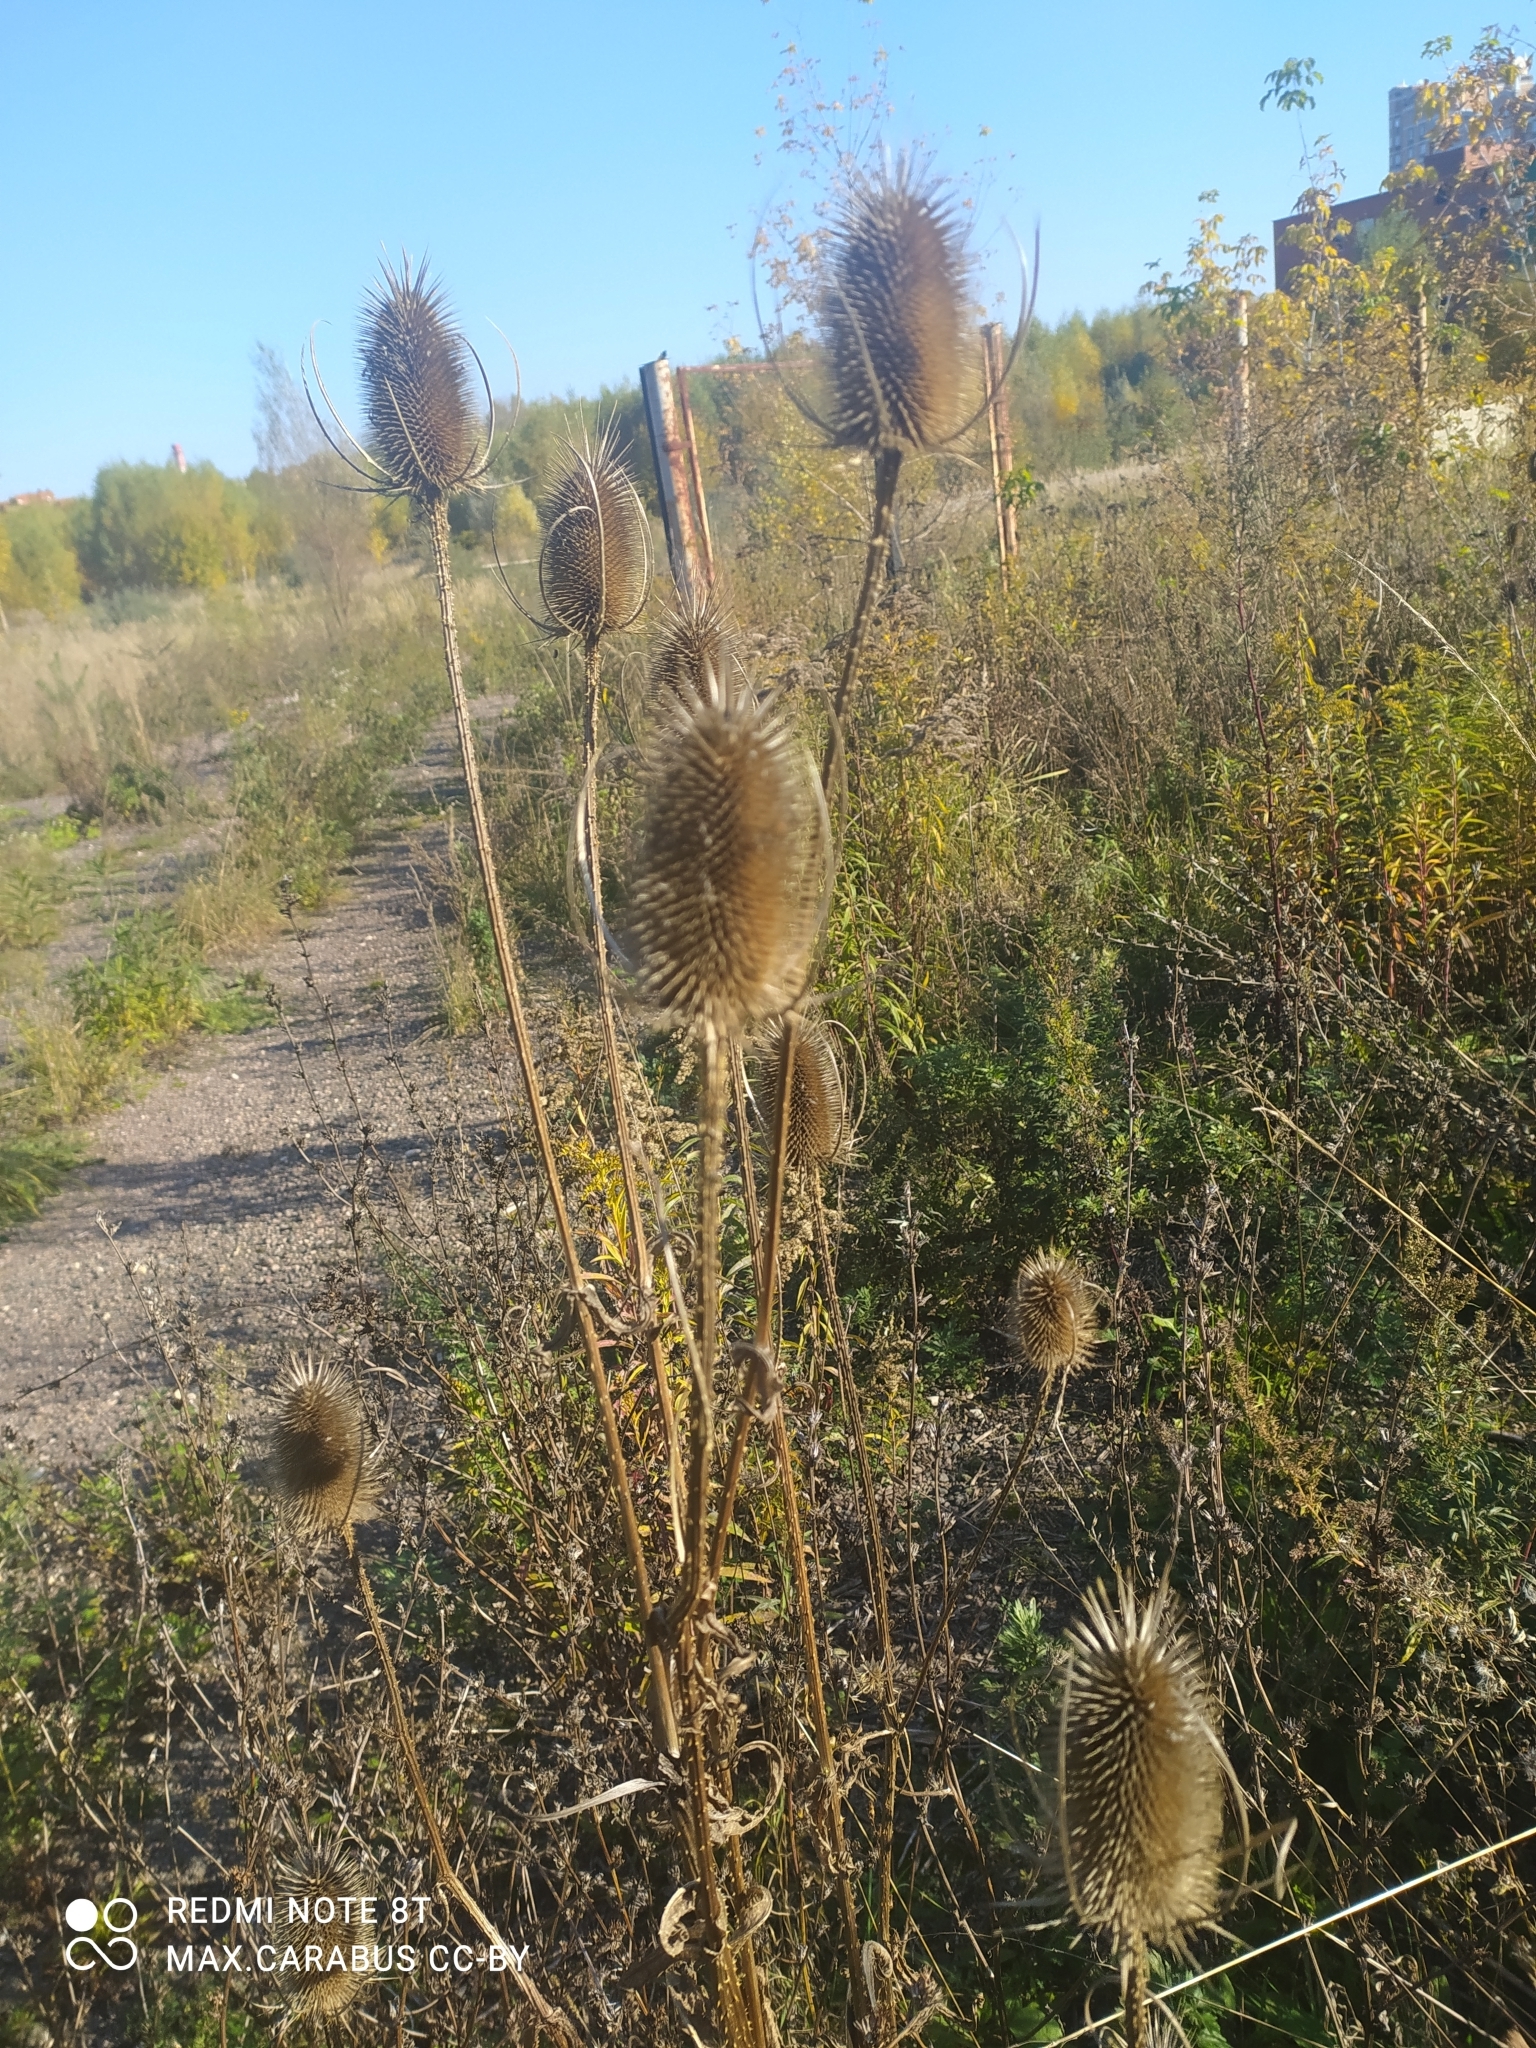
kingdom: Plantae
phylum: Tracheophyta
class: Magnoliopsida
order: Dipsacales
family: Caprifoliaceae
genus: Dipsacus
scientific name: Dipsacus fullonum
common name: Teasel
